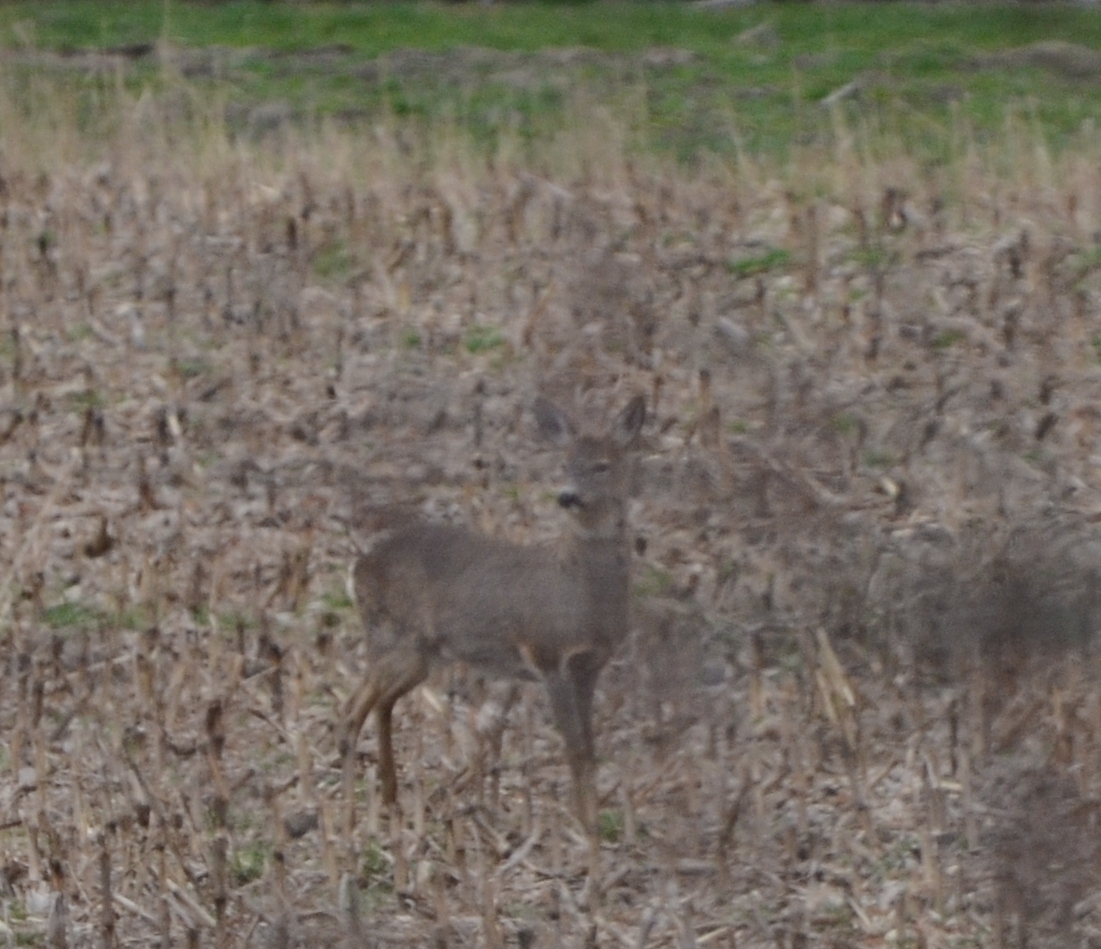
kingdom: Animalia
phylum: Chordata
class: Mammalia
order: Artiodactyla
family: Cervidae
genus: Capreolus
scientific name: Capreolus capreolus
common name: Western roe deer
